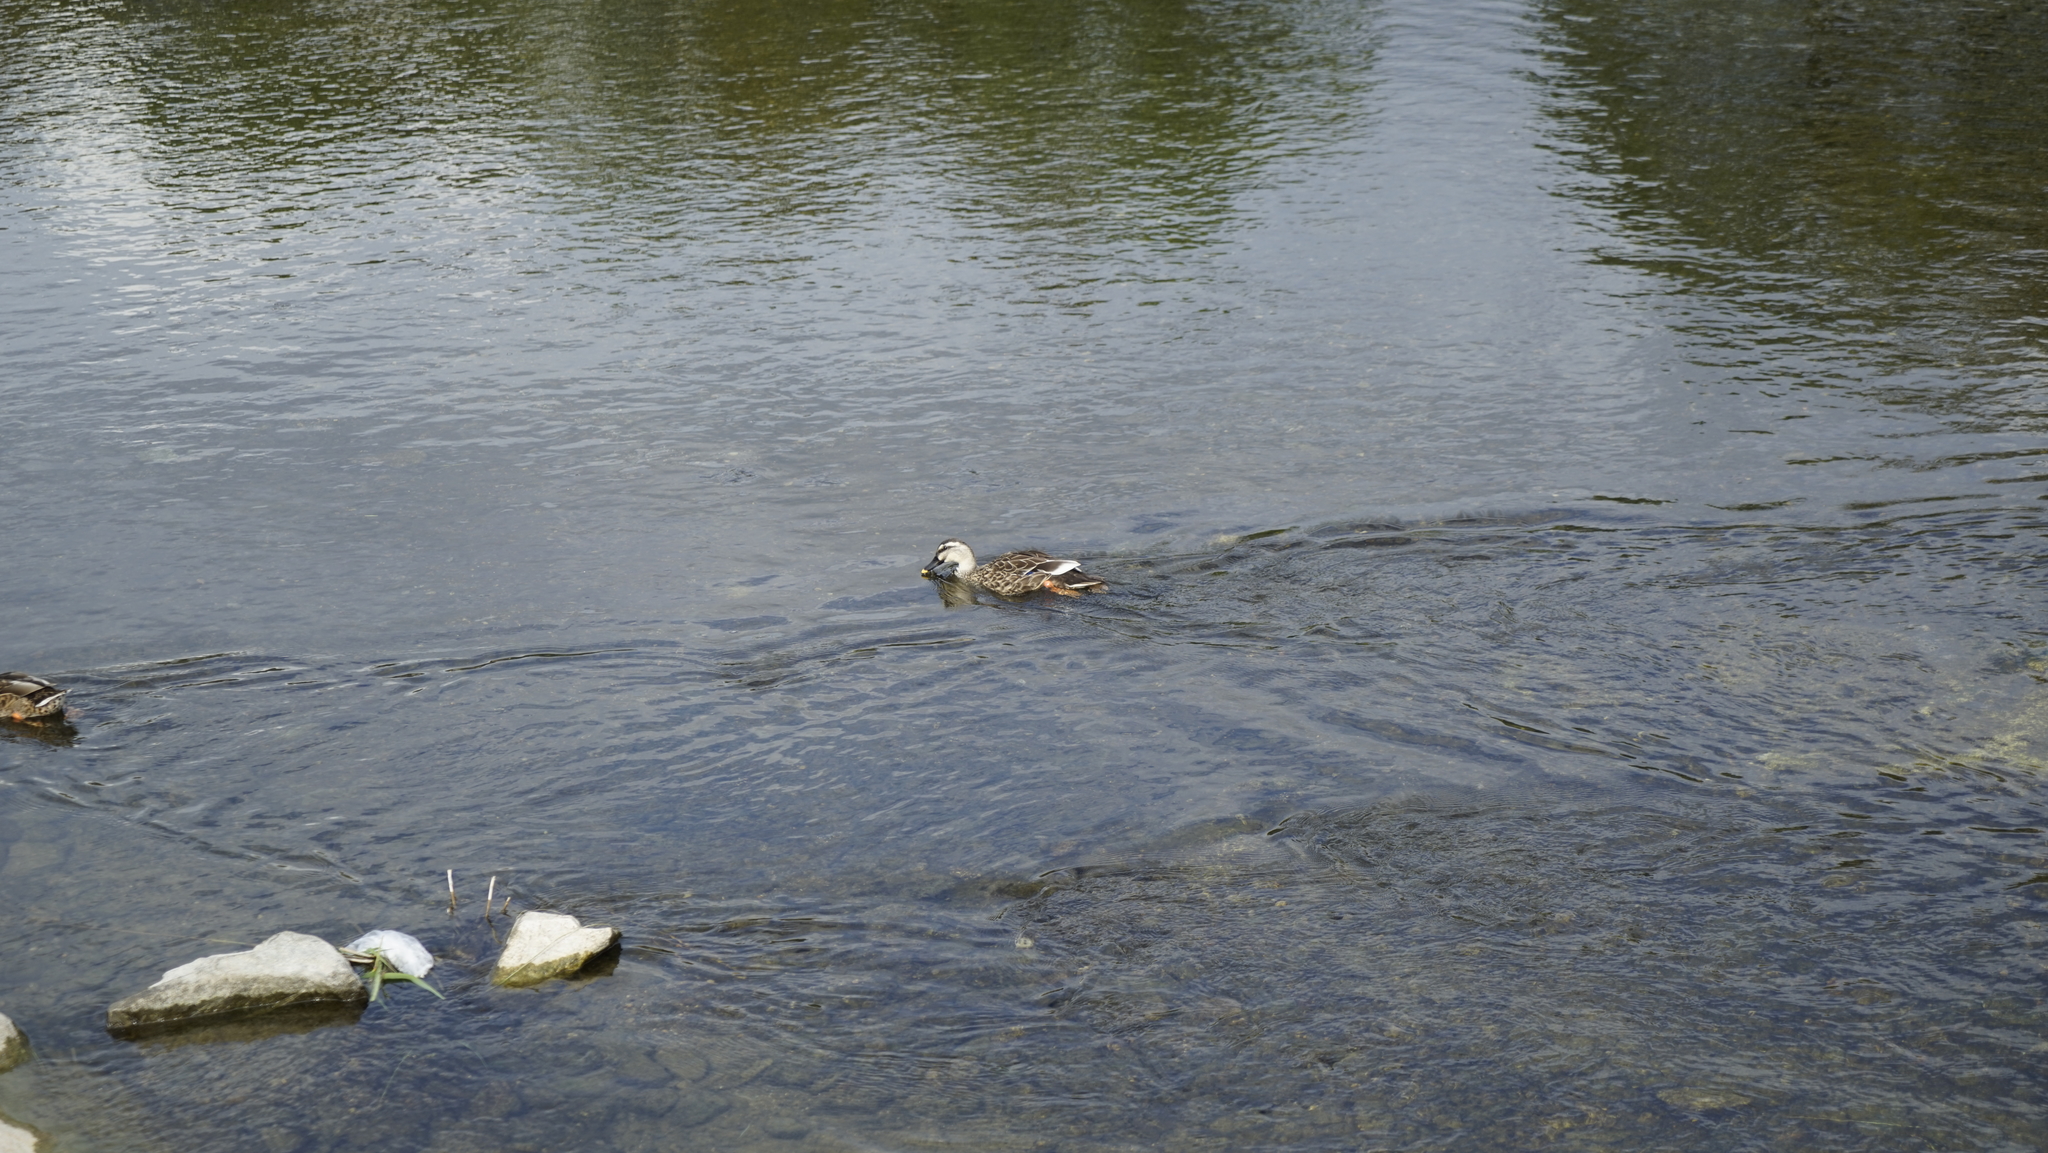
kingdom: Animalia
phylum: Chordata
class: Aves
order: Anseriformes
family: Anatidae
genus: Anas
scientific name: Anas zonorhyncha
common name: Eastern spot-billed duck
